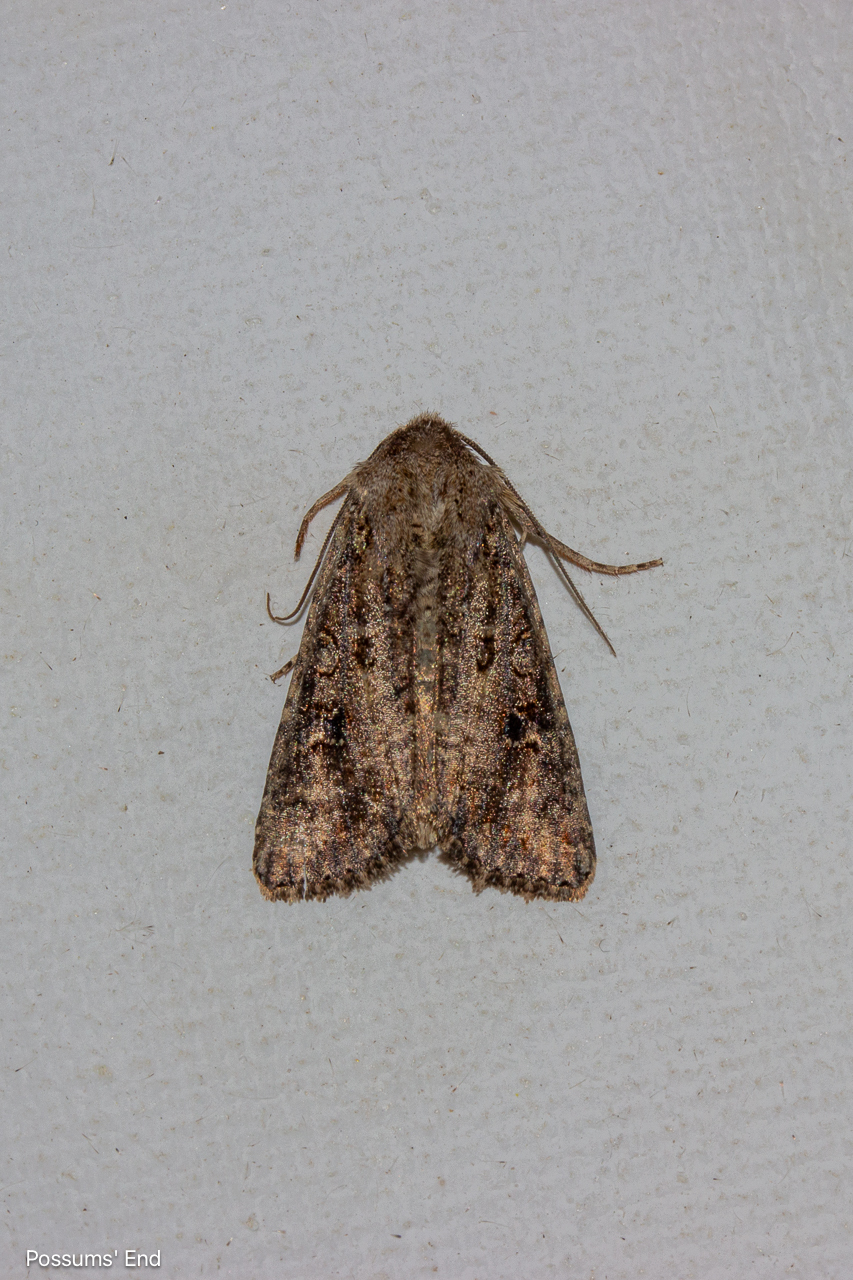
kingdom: Animalia
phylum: Arthropoda
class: Insecta
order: Lepidoptera
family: Noctuidae
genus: Ichneutica
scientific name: Ichneutica morosa
